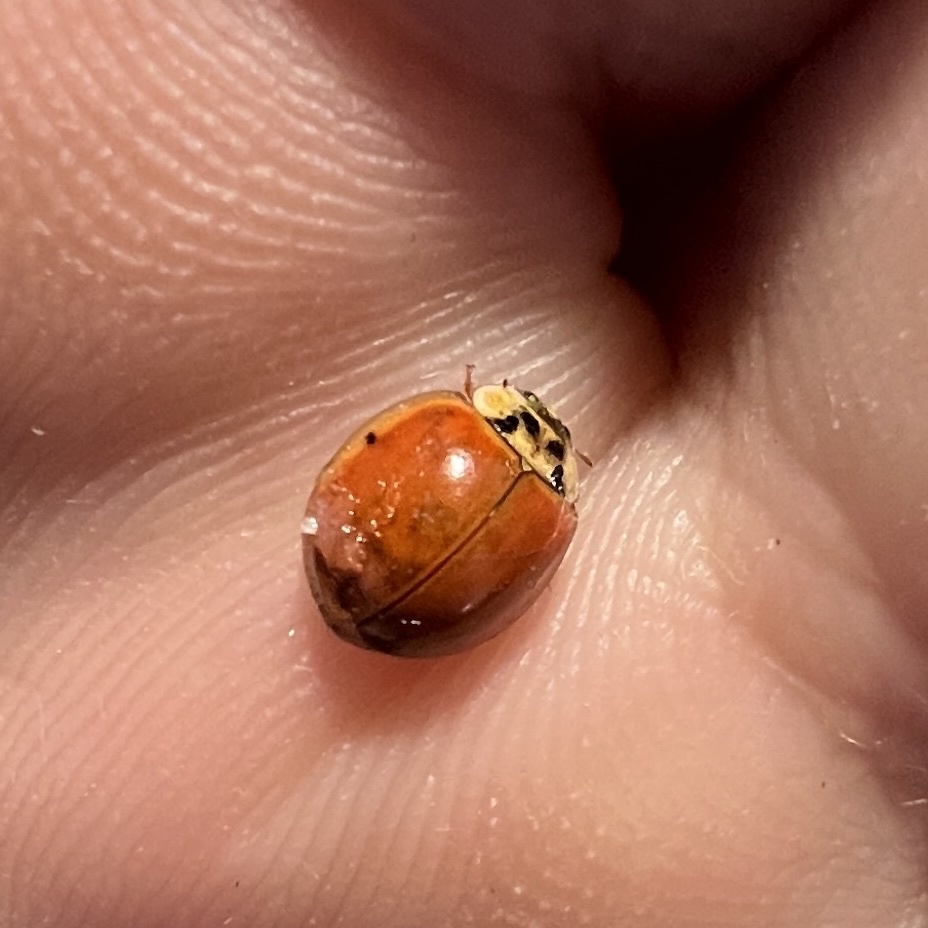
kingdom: Animalia
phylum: Arthropoda
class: Insecta
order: Coleoptera
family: Coccinellidae
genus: Harmonia
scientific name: Harmonia axyridis
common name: Harlequin ladybird
